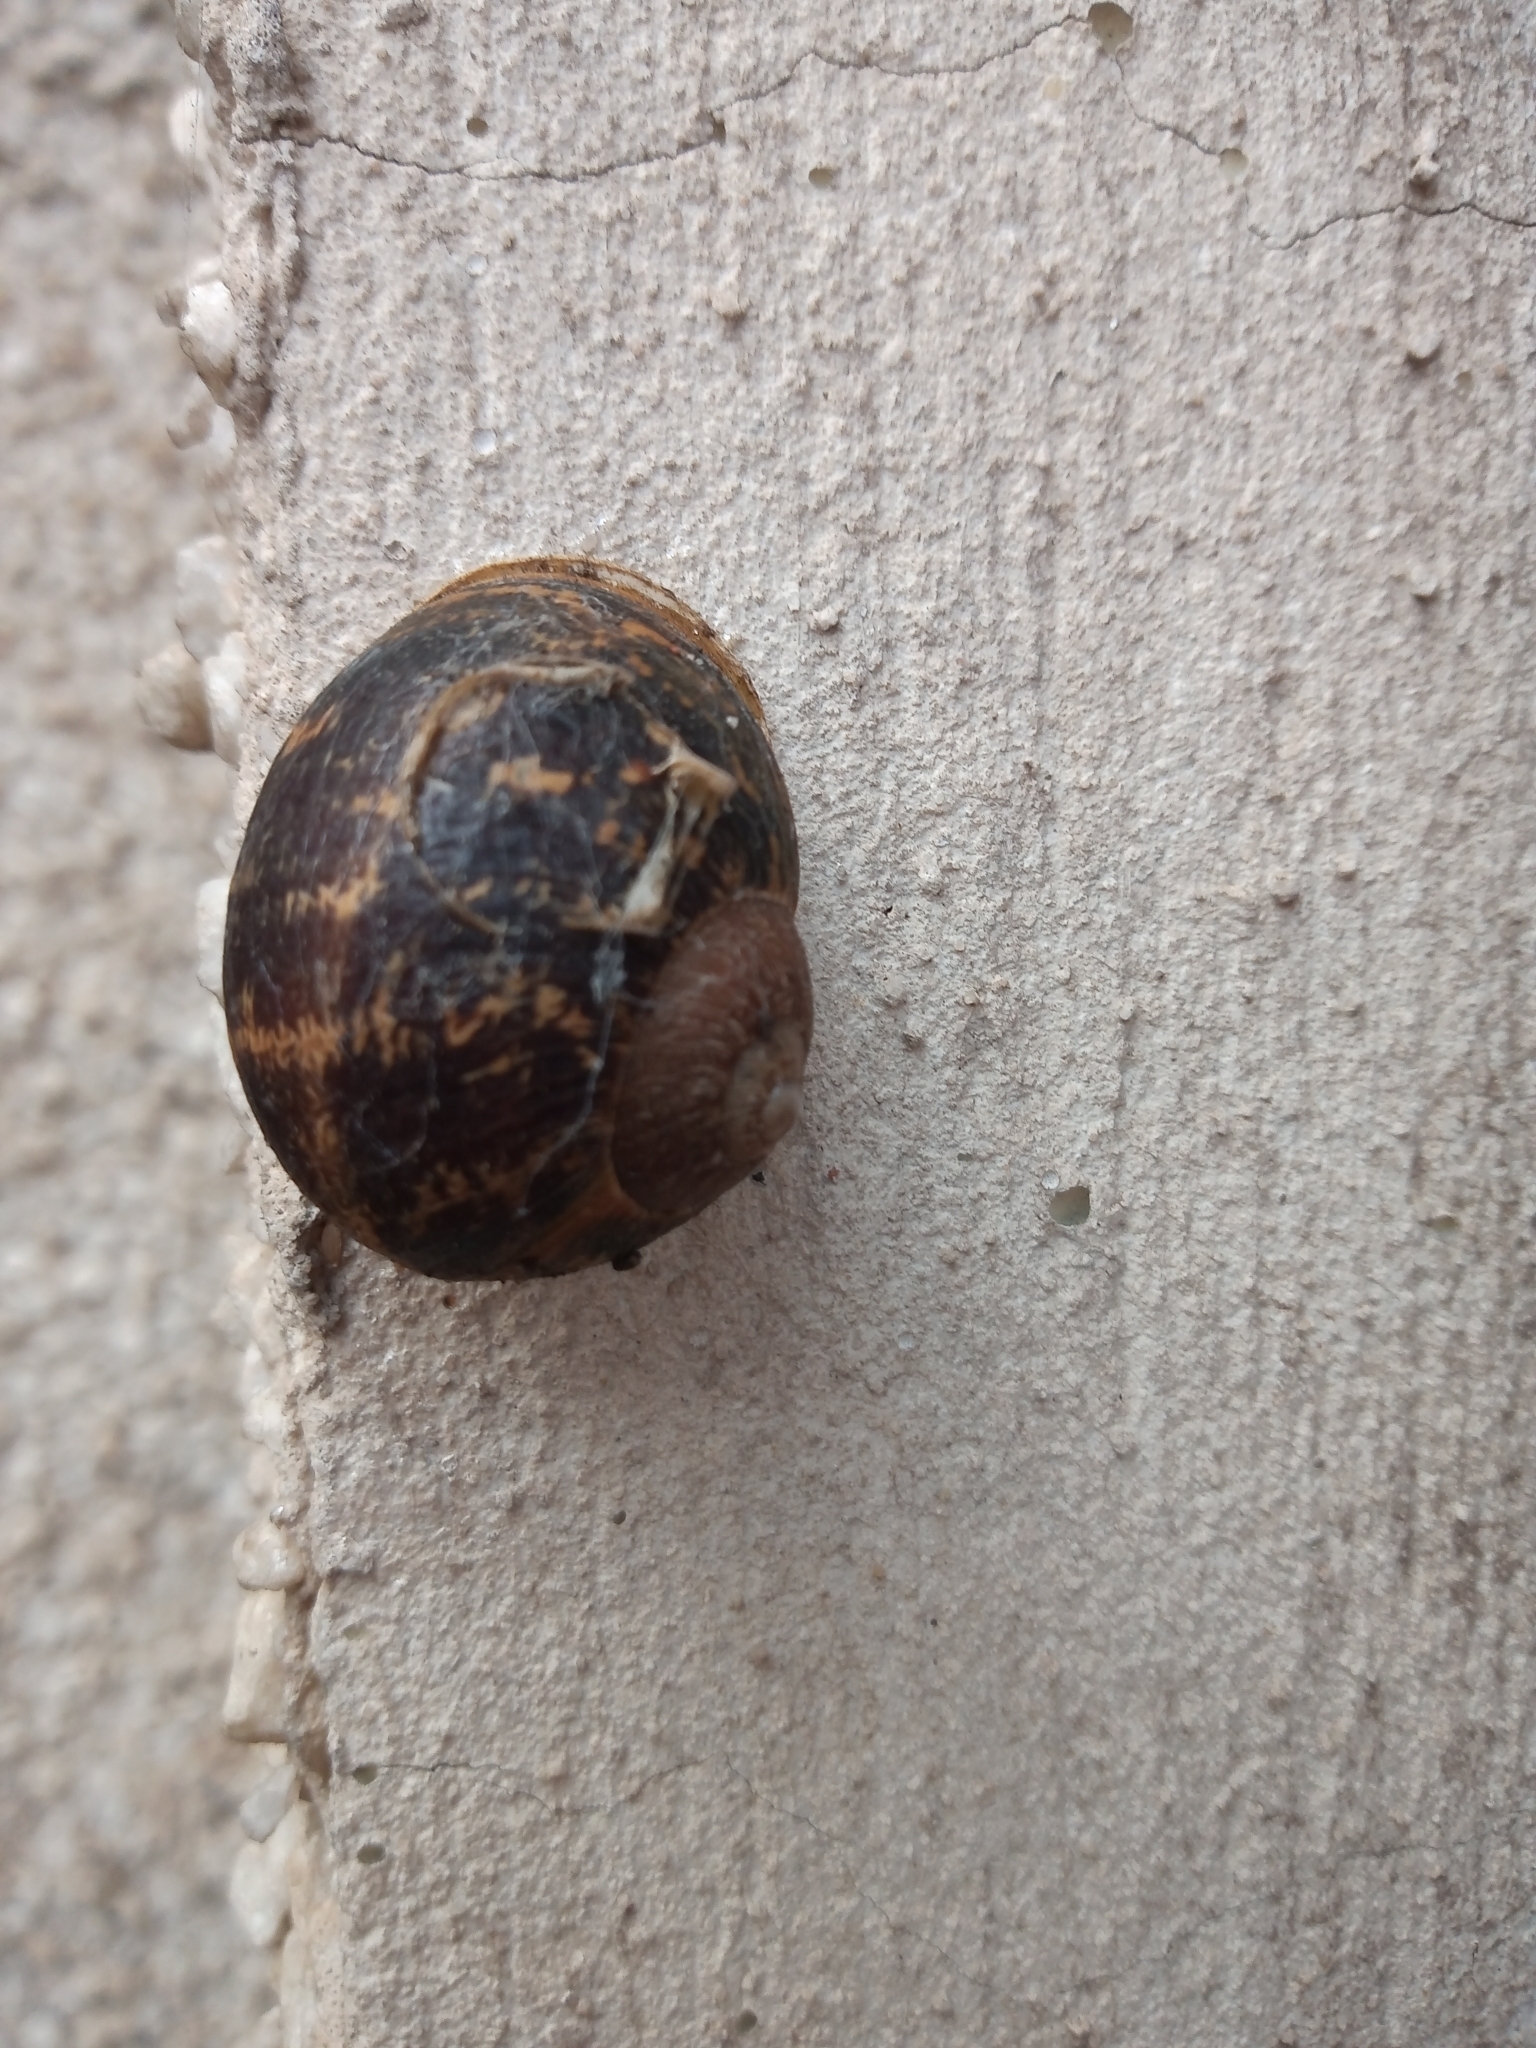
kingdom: Animalia
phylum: Mollusca
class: Gastropoda
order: Stylommatophora
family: Helicidae
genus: Cornu
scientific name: Cornu aspersum
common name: Brown garden snail
